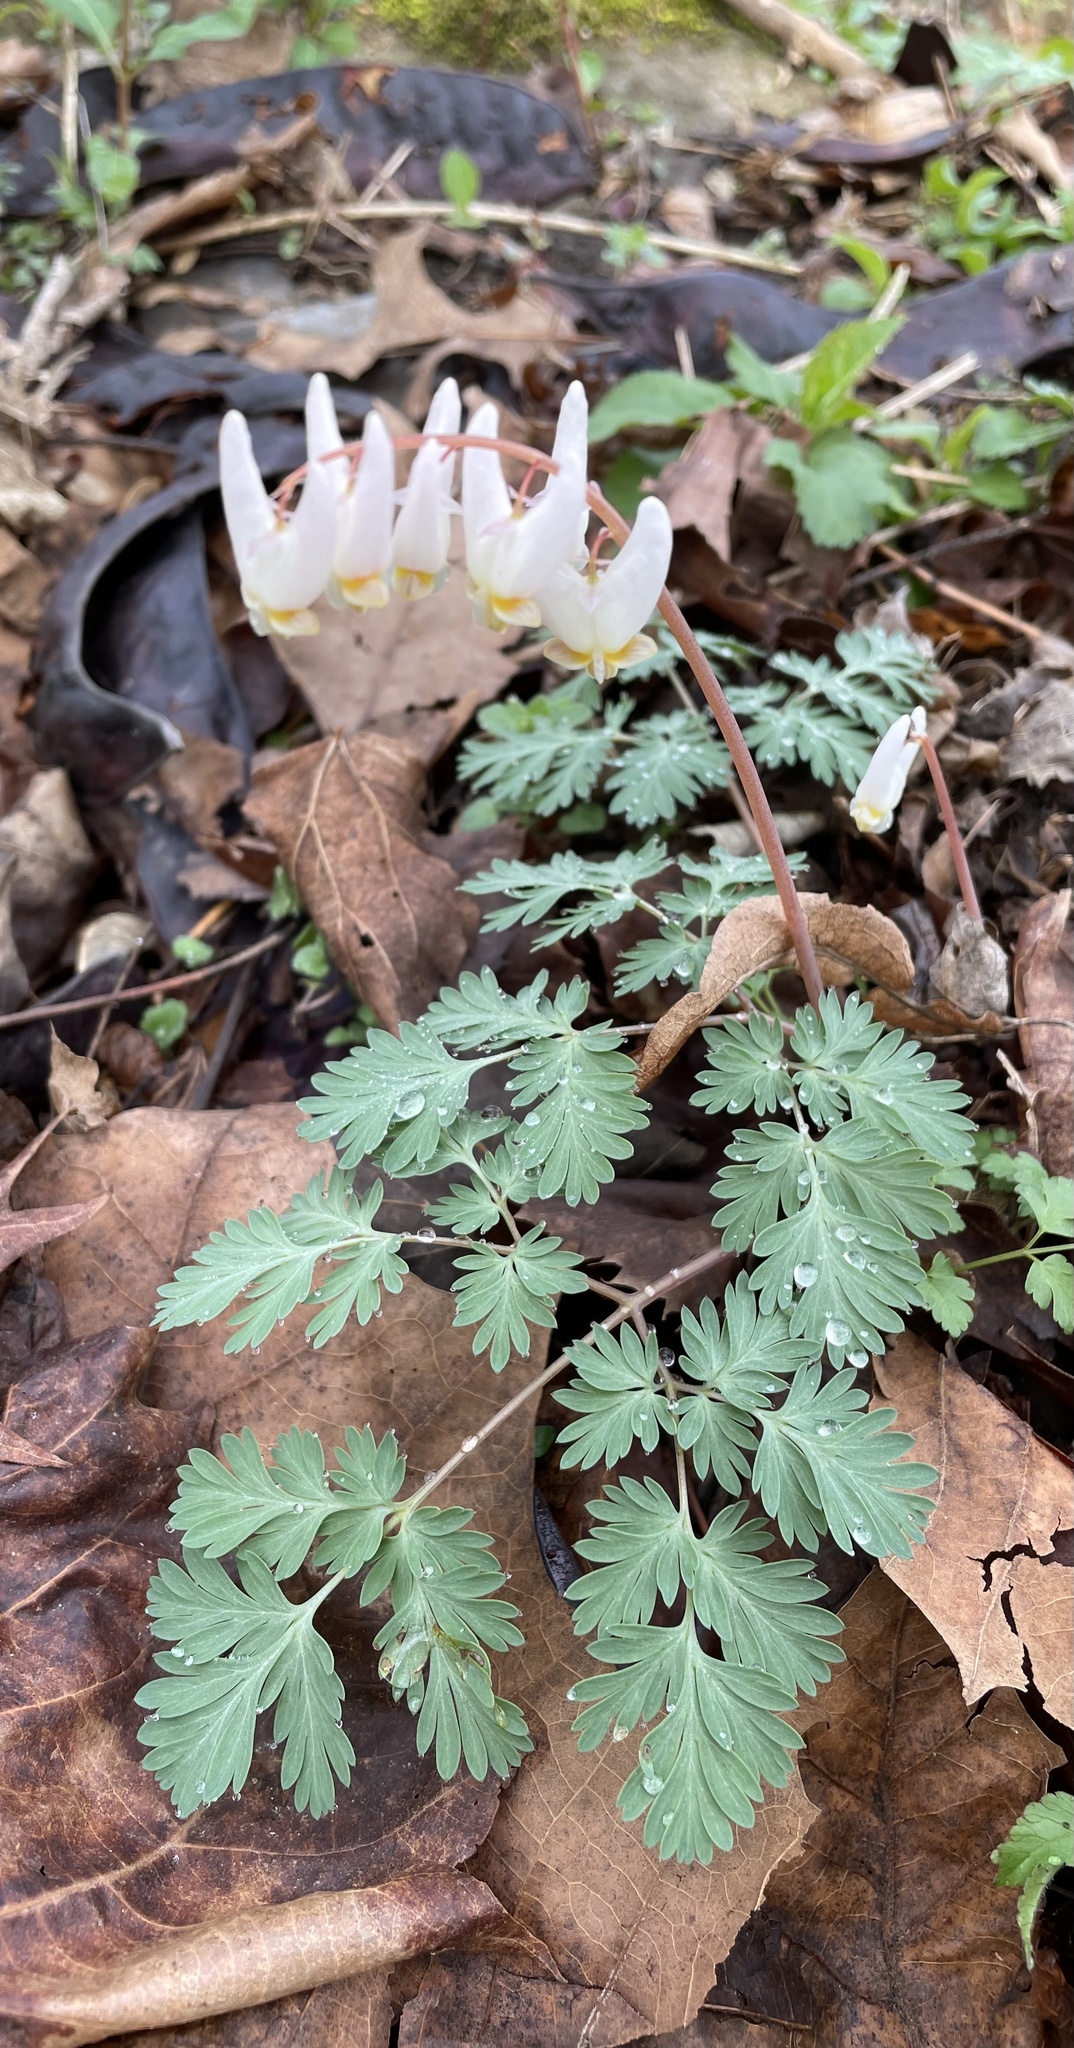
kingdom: Plantae
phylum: Tracheophyta
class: Magnoliopsida
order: Ranunculales
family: Papaveraceae
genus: Dicentra
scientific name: Dicentra cucullaria
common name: Dutchman's breeches
